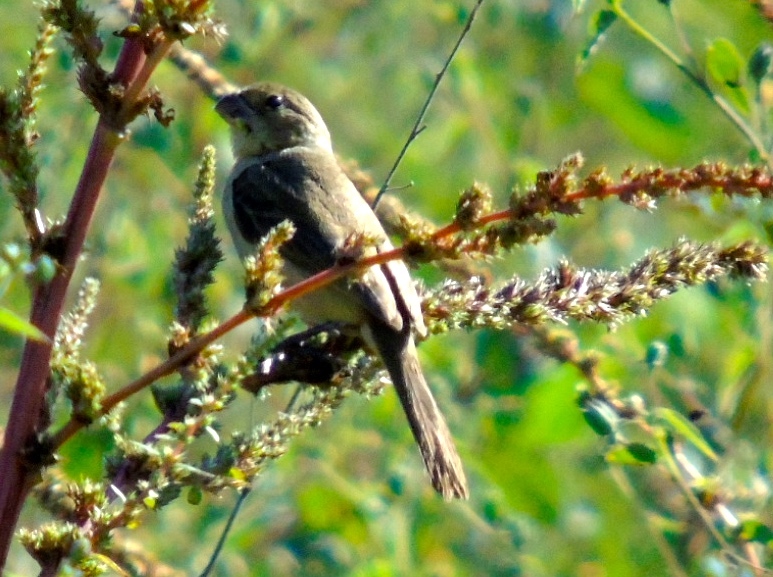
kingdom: Animalia
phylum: Chordata
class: Aves
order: Passeriformes
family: Thraupidae
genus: Sporophila
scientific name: Sporophila torqueola
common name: White-collared seedeater
